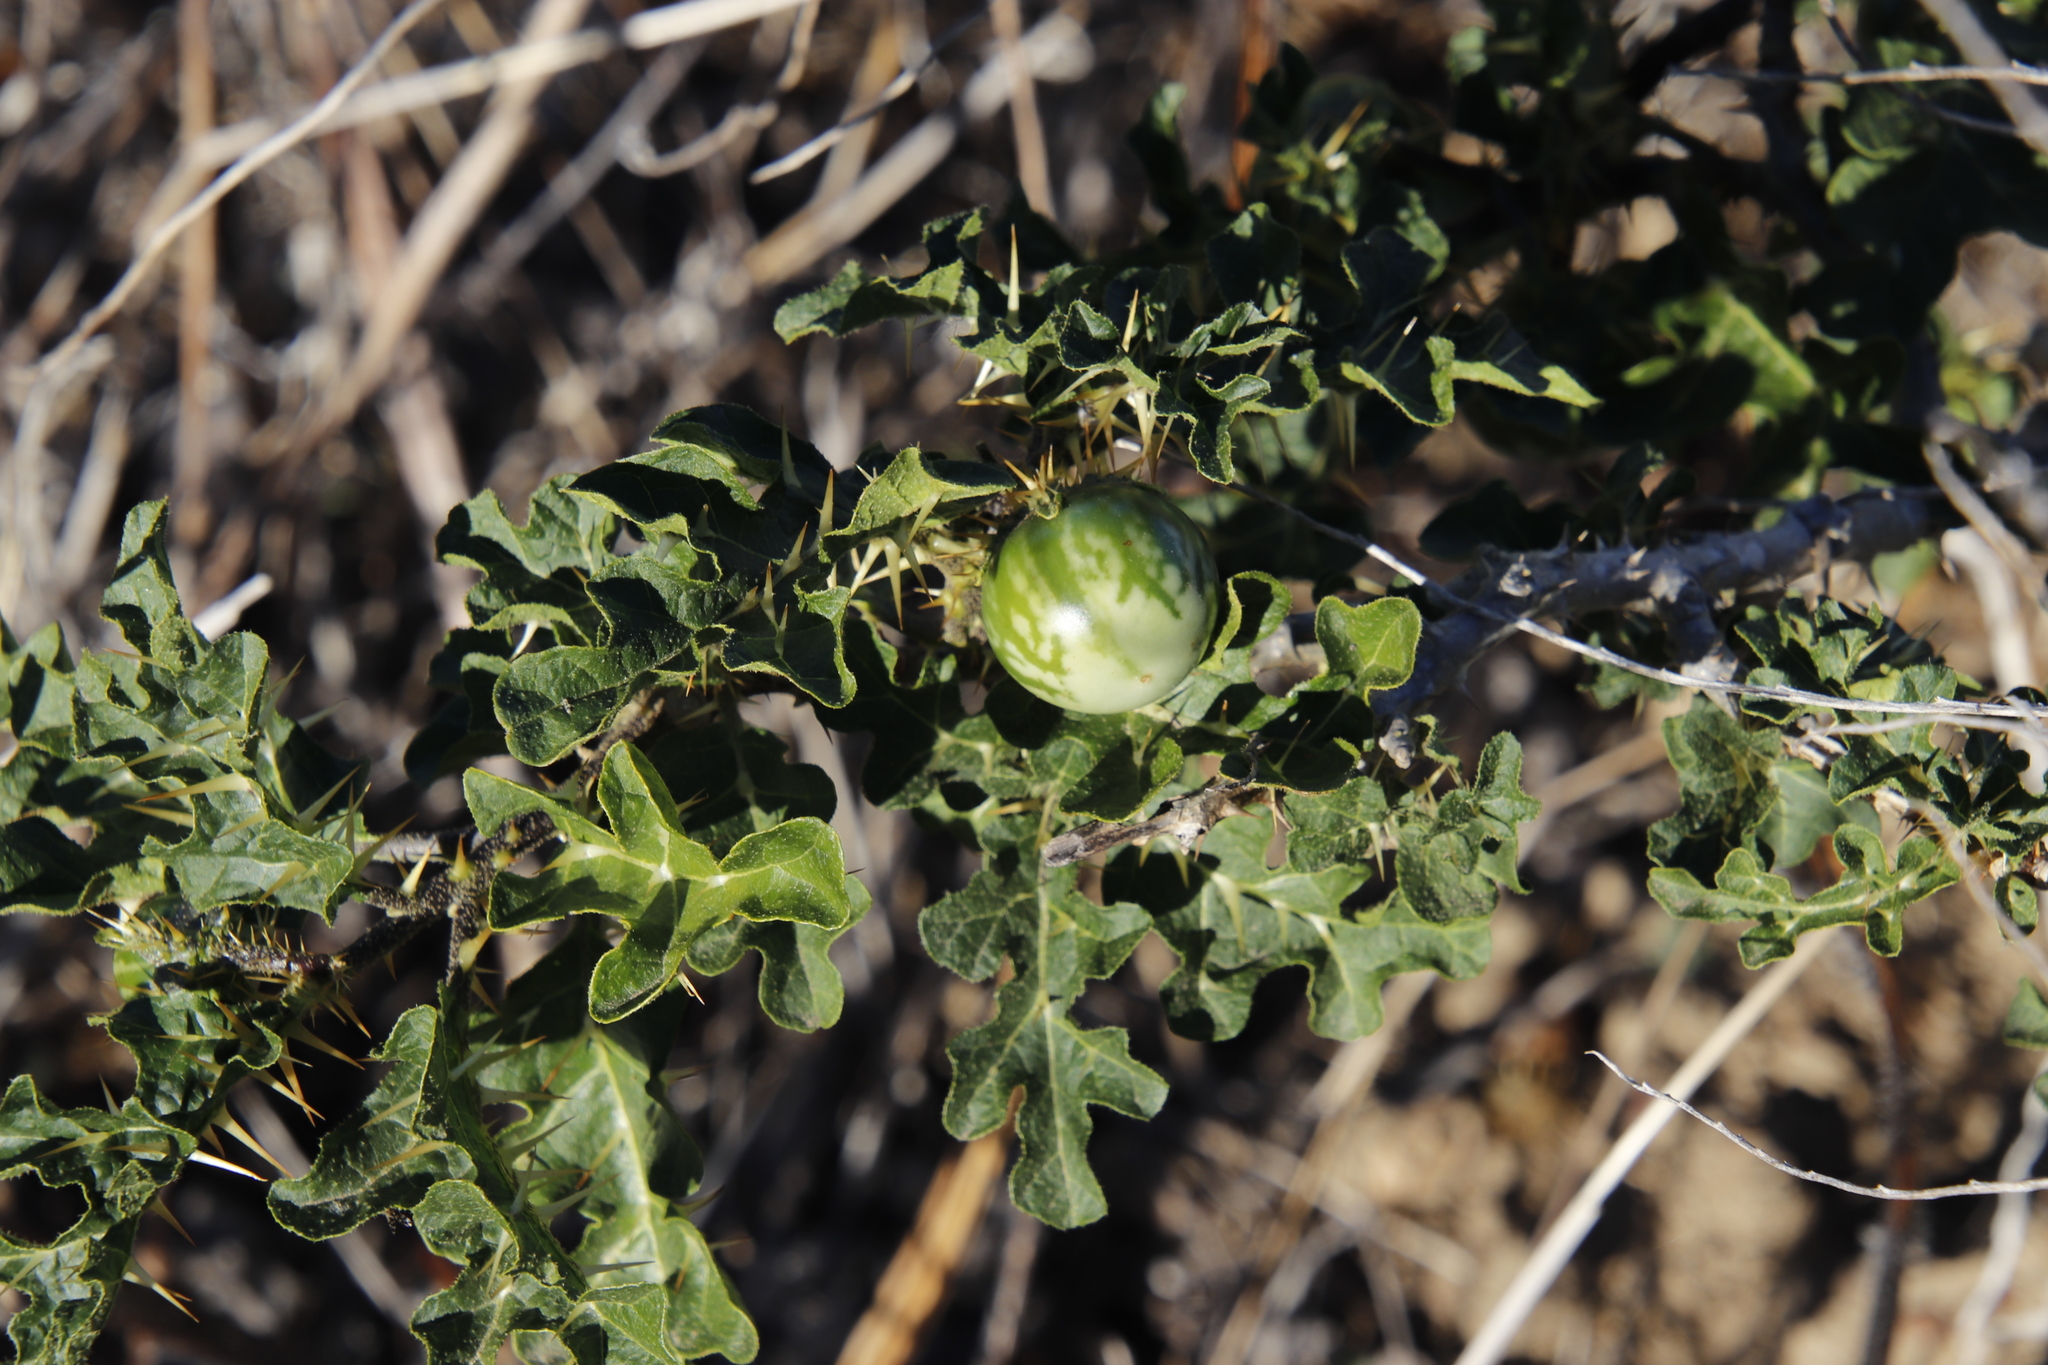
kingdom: Plantae
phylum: Tracheophyta
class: Magnoliopsida
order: Solanales
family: Solanaceae
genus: Solanum
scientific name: Solanum linnaeanum
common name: Nightshade
